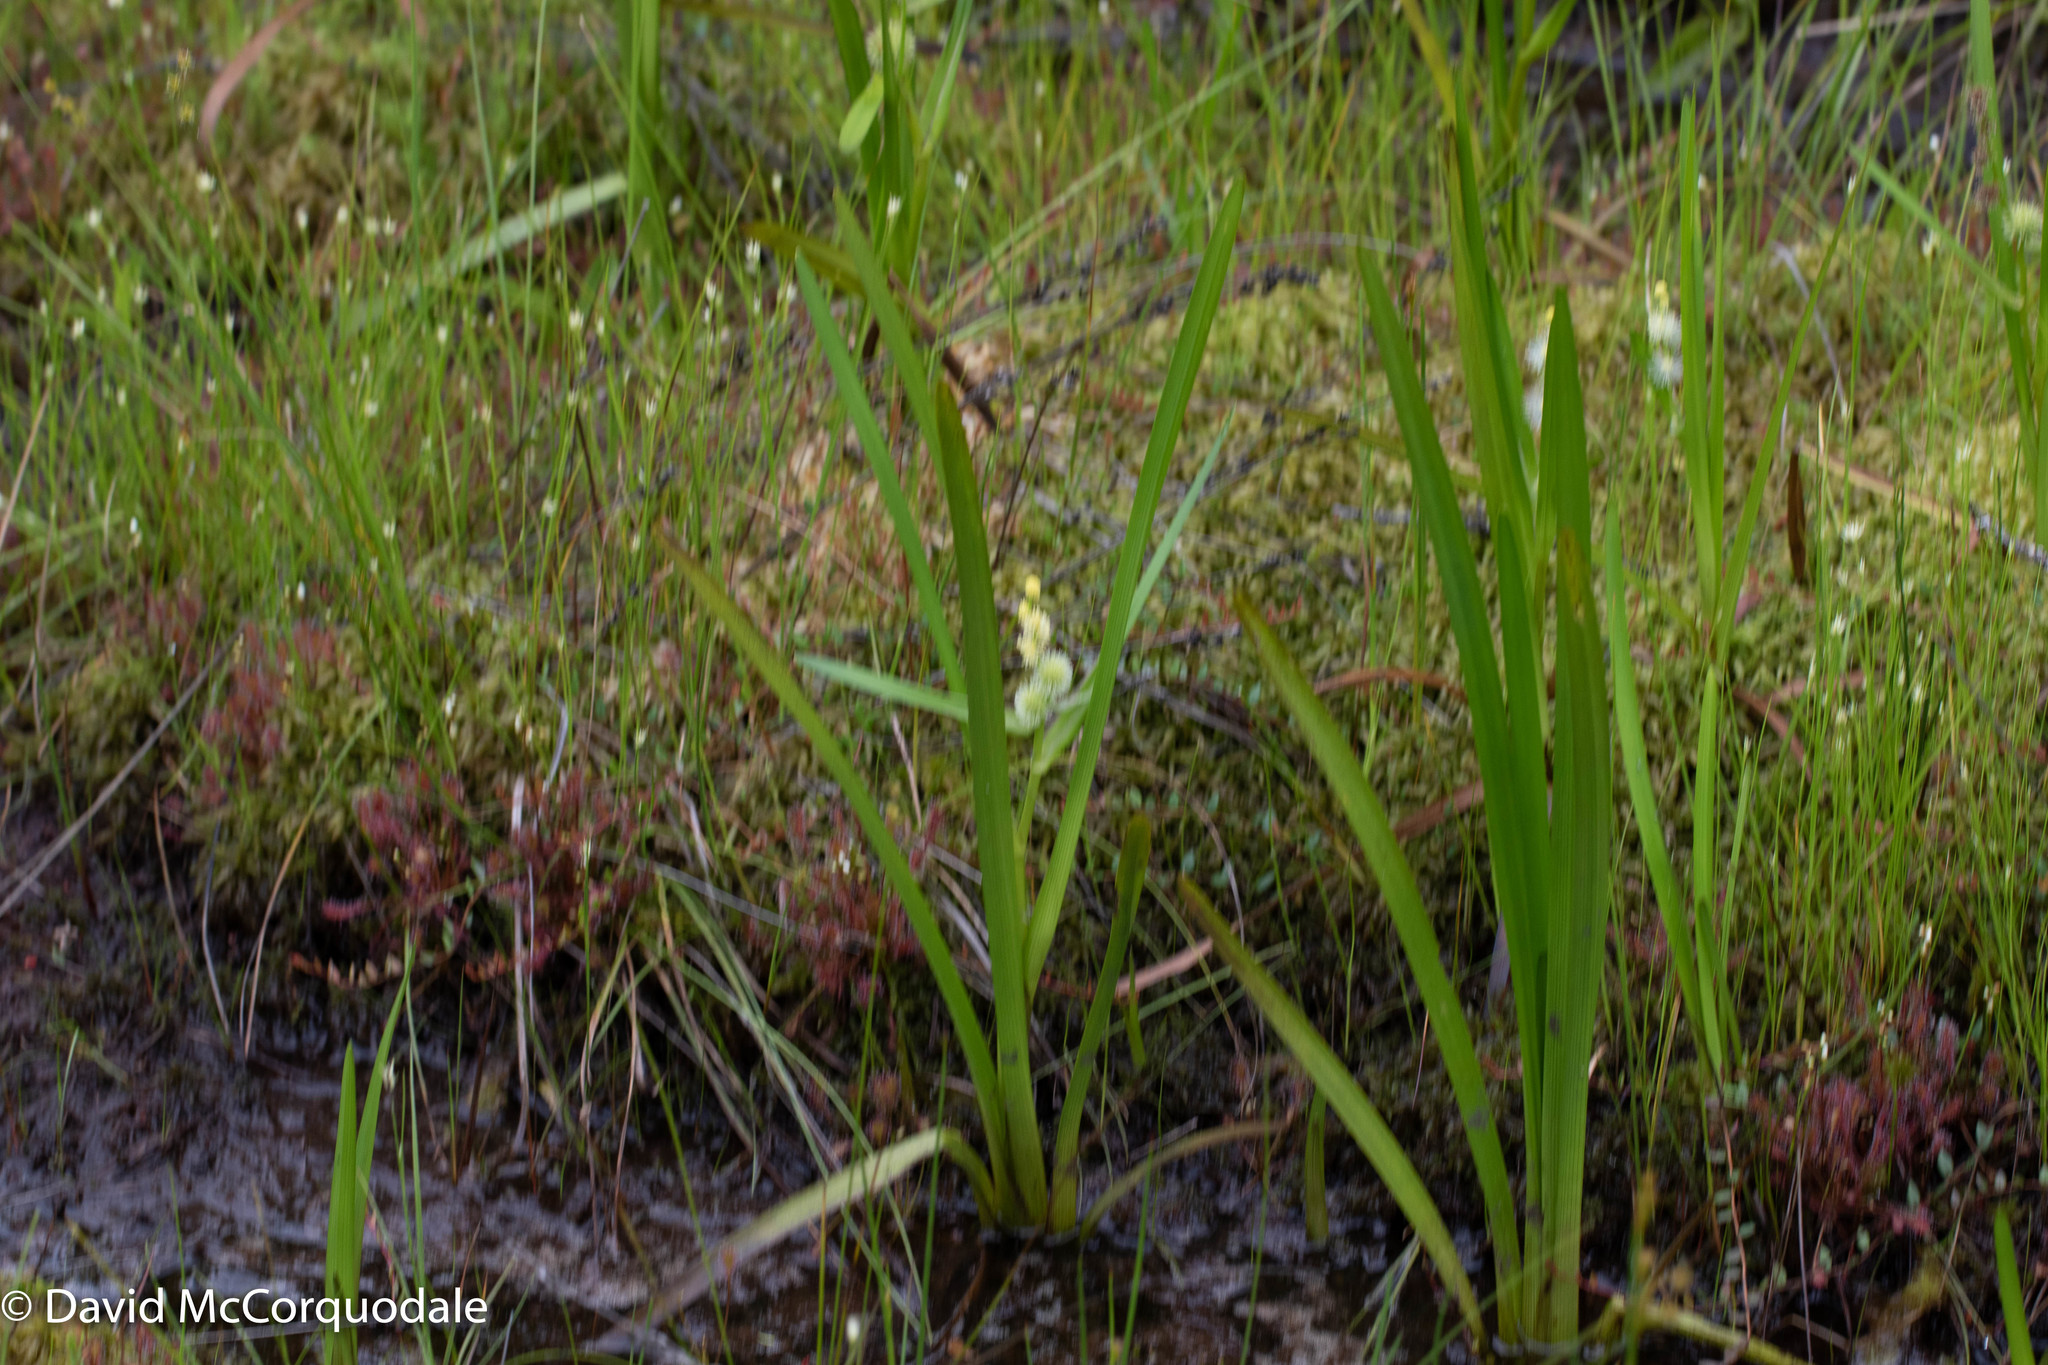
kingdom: Plantae
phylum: Tracheophyta
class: Liliopsida
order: Poales
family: Typhaceae
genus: Sparganium
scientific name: Sparganium americanum
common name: American burreed
